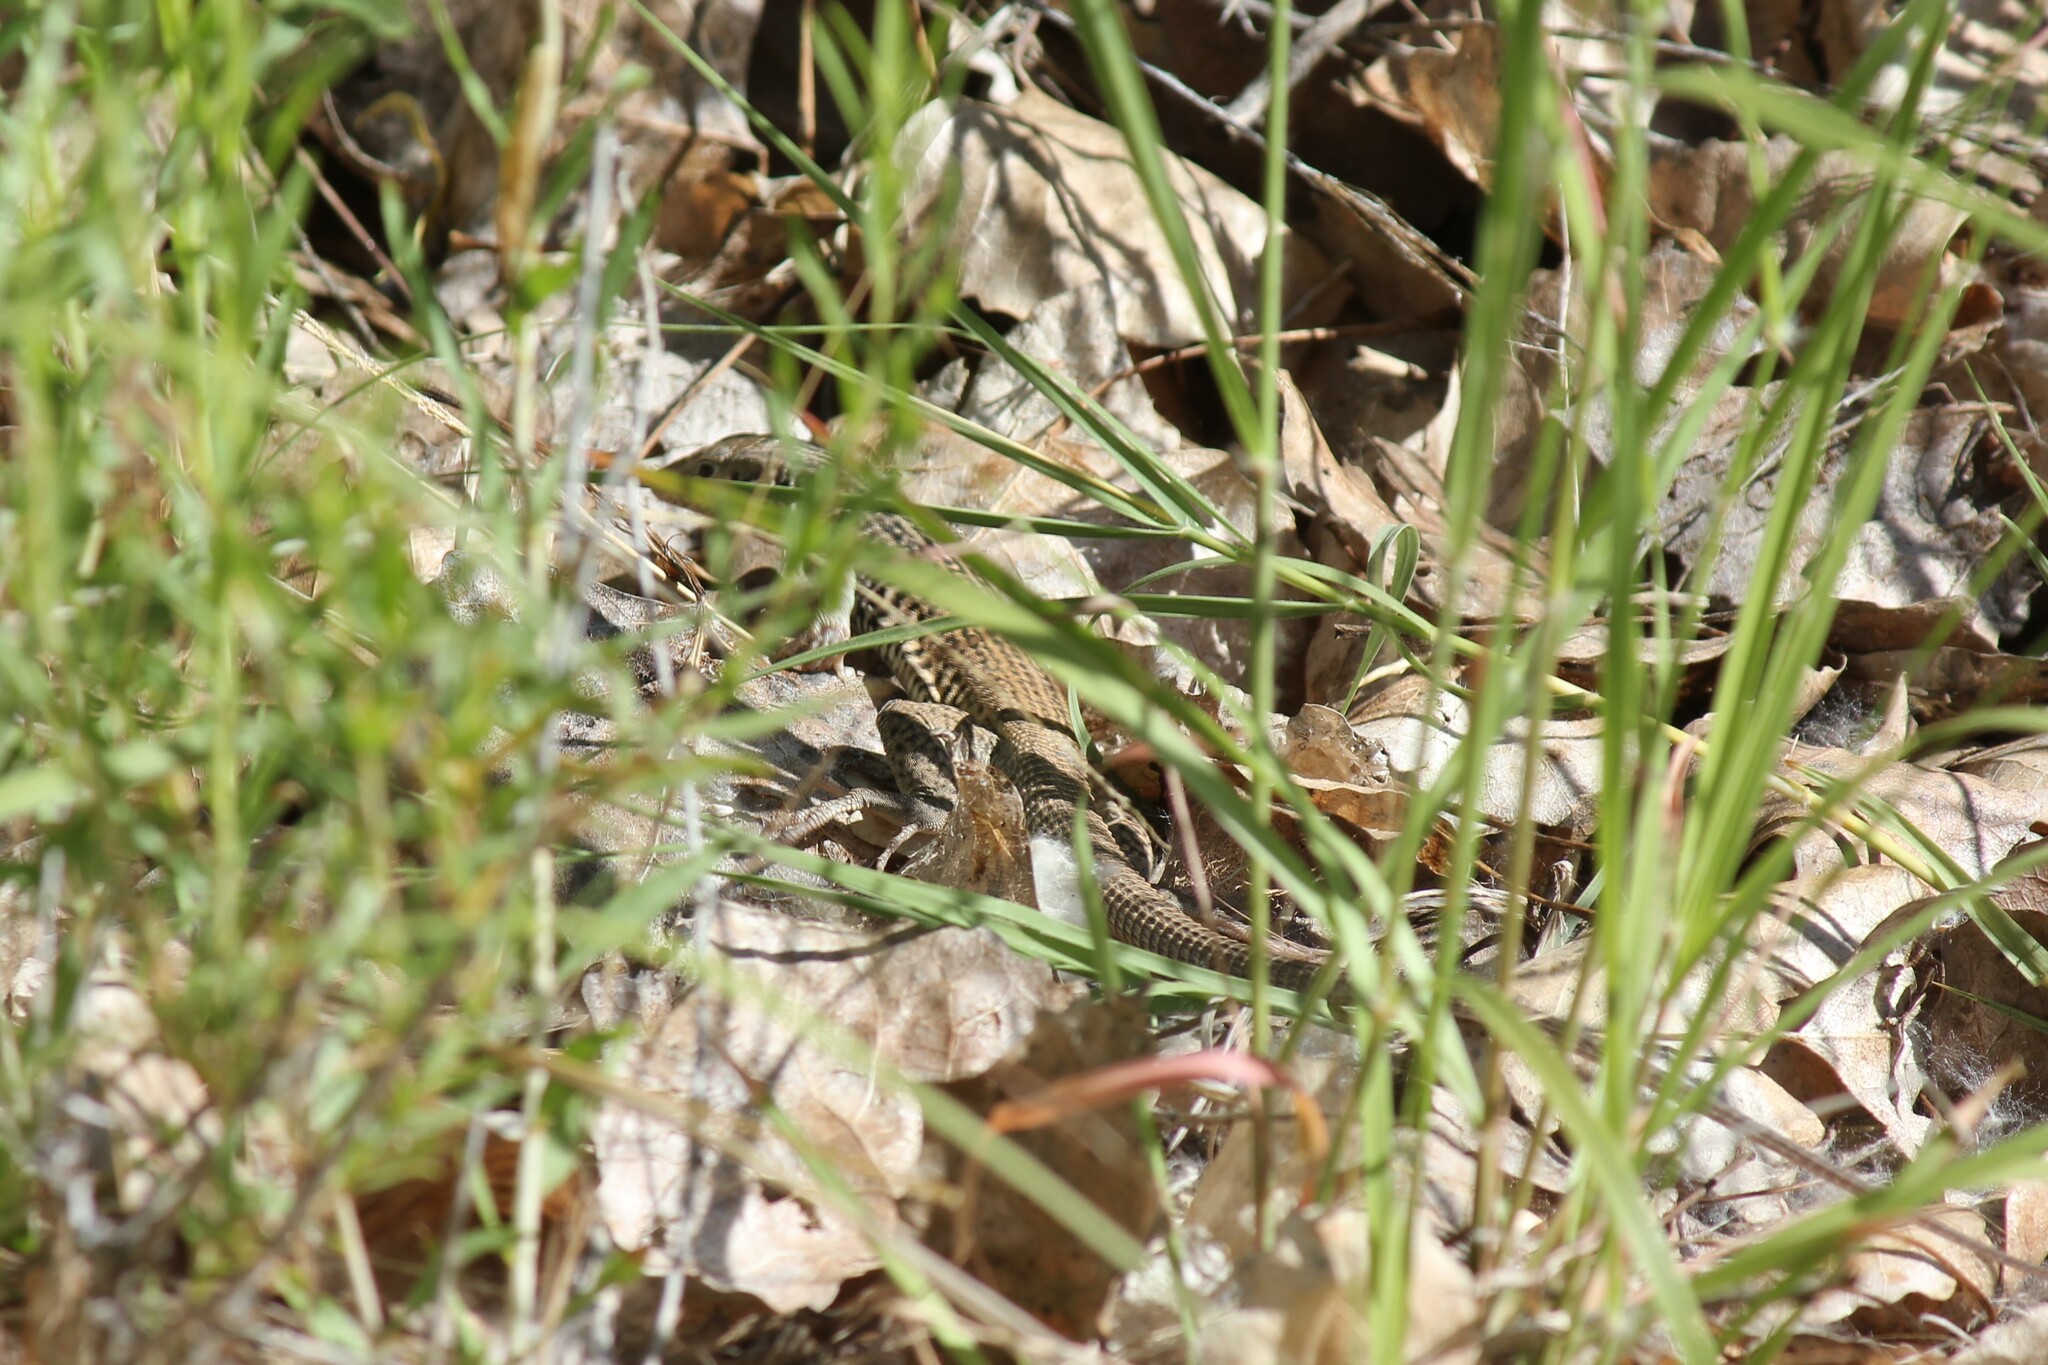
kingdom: Animalia
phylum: Chordata
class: Squamata
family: Teiidae
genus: Aspidoscelis
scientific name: Aspidoscelis tigris
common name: Tiger whiptail
